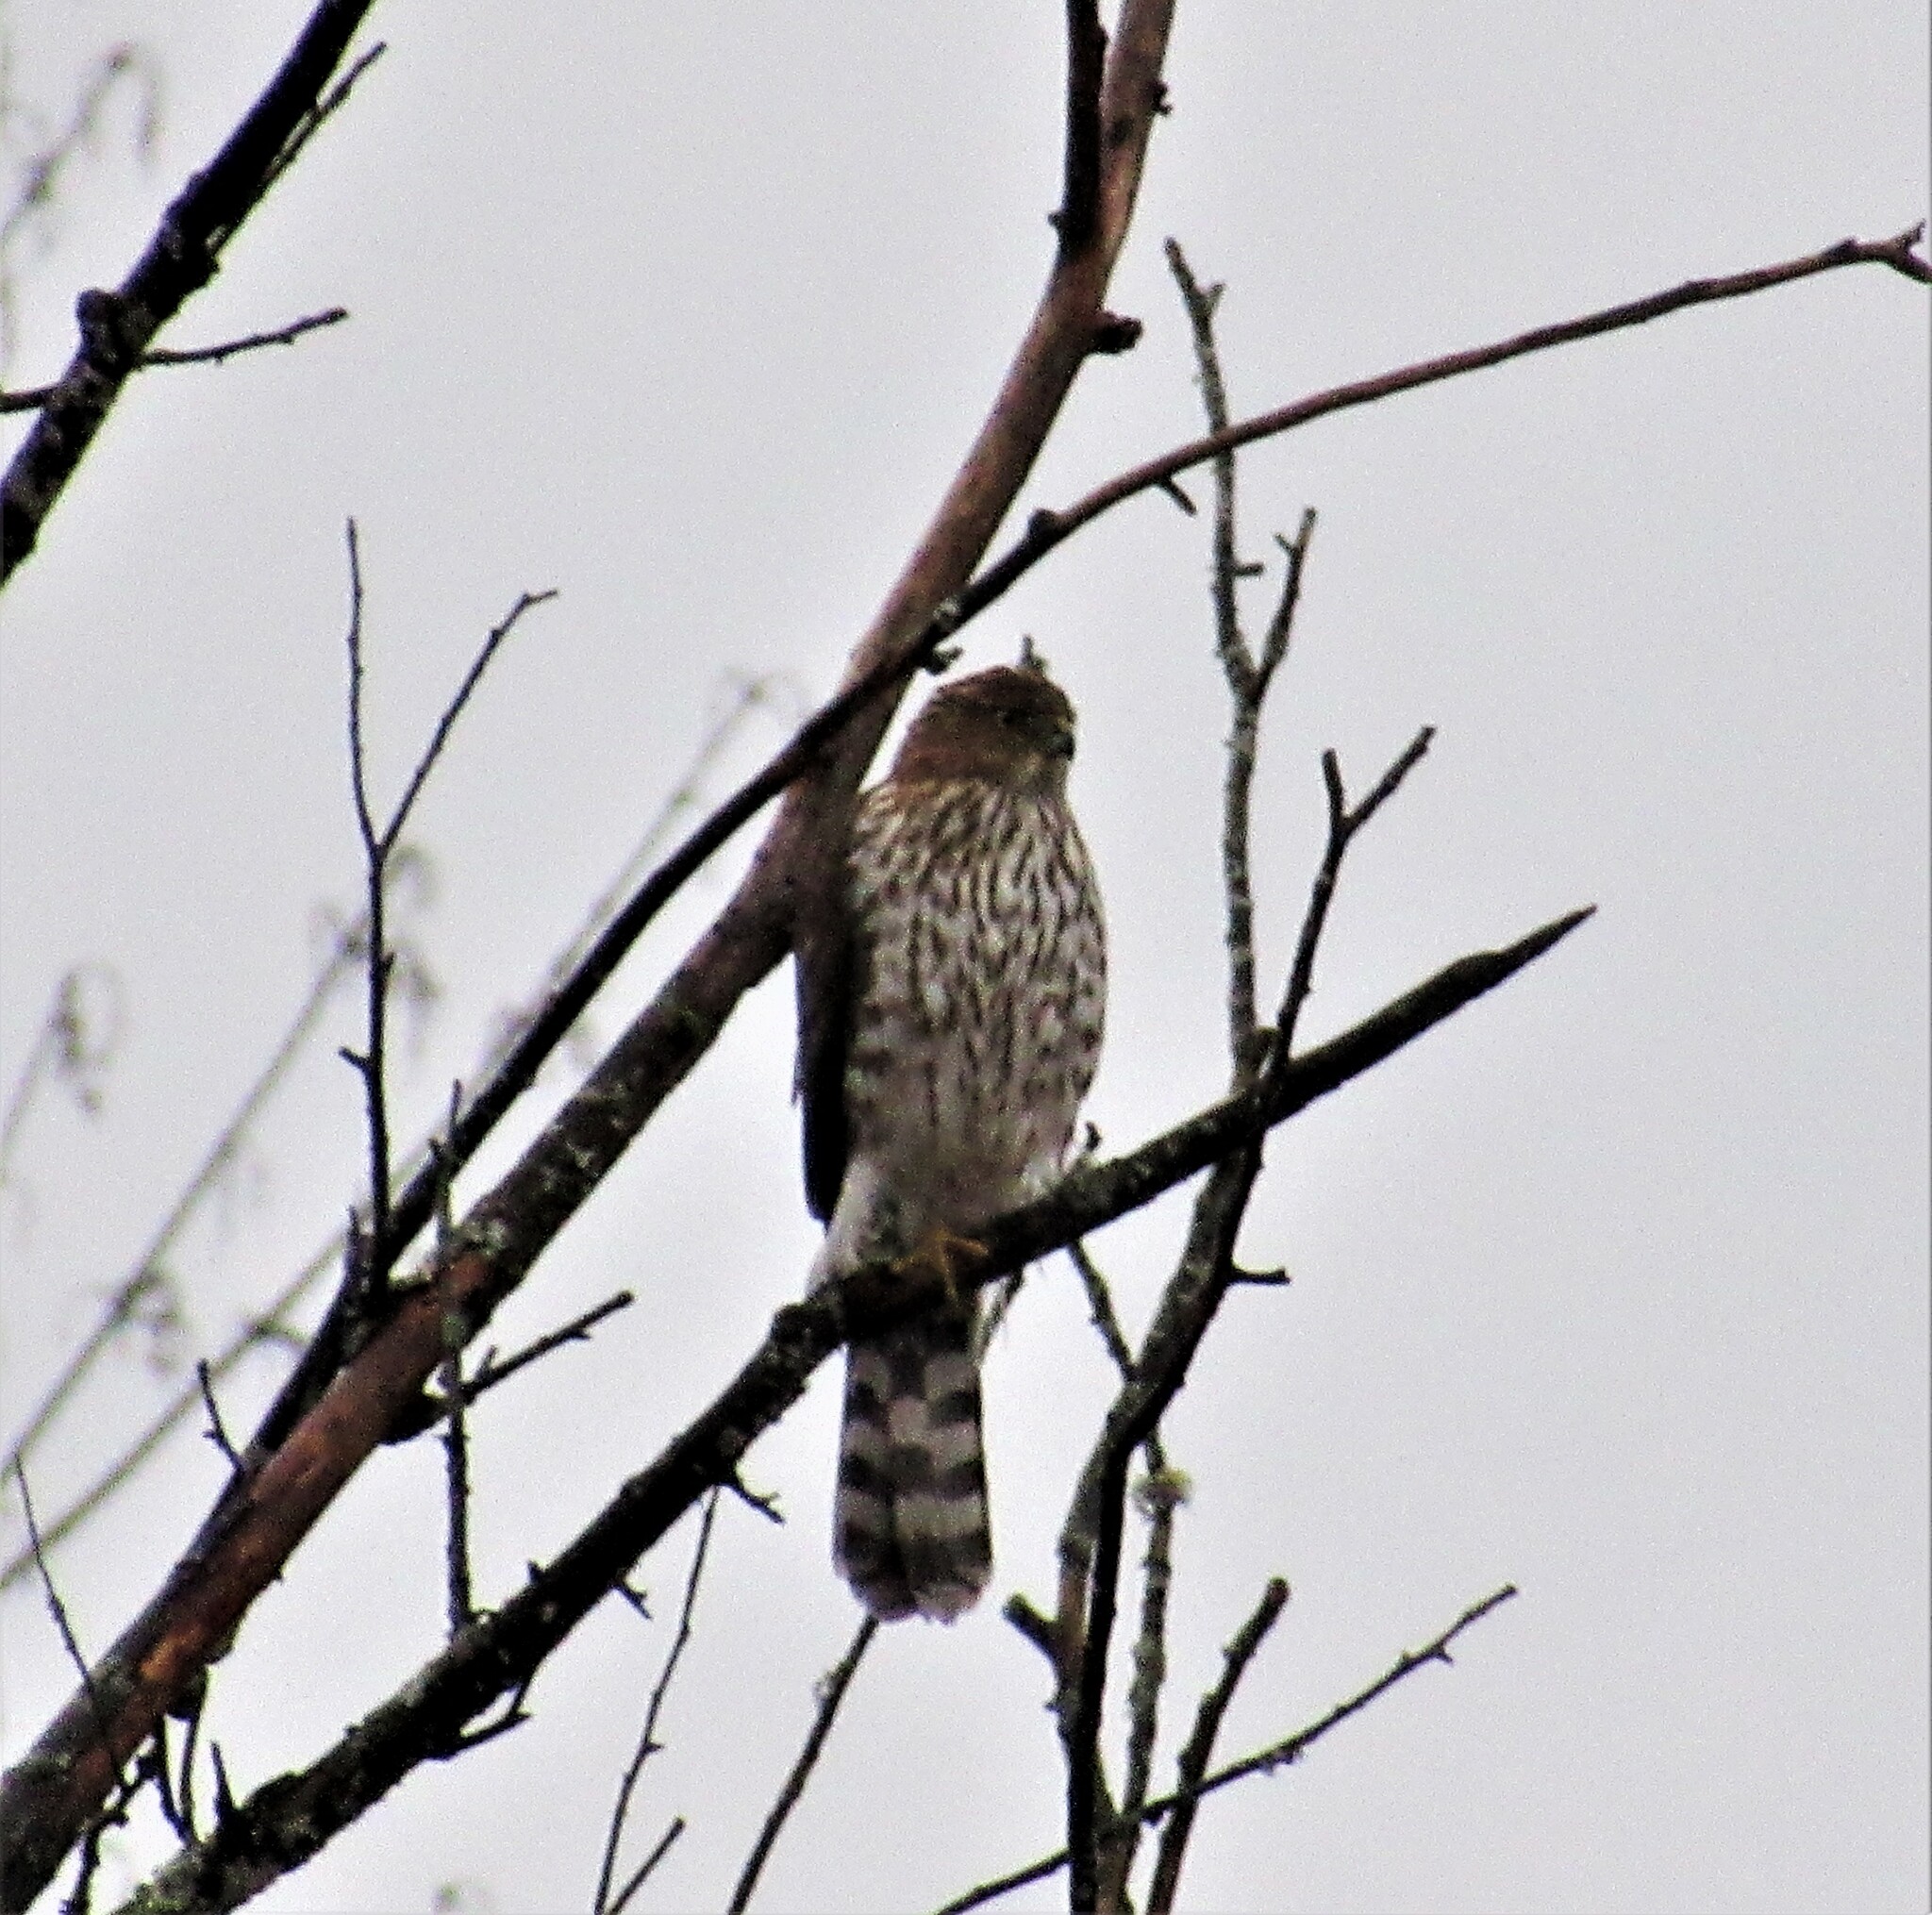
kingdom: Animalia
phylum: Chordata
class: Aves
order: Accipitriformes
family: Accipitridae
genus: Accipiter
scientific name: Accipiter cooperii
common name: Cooper's hawk
